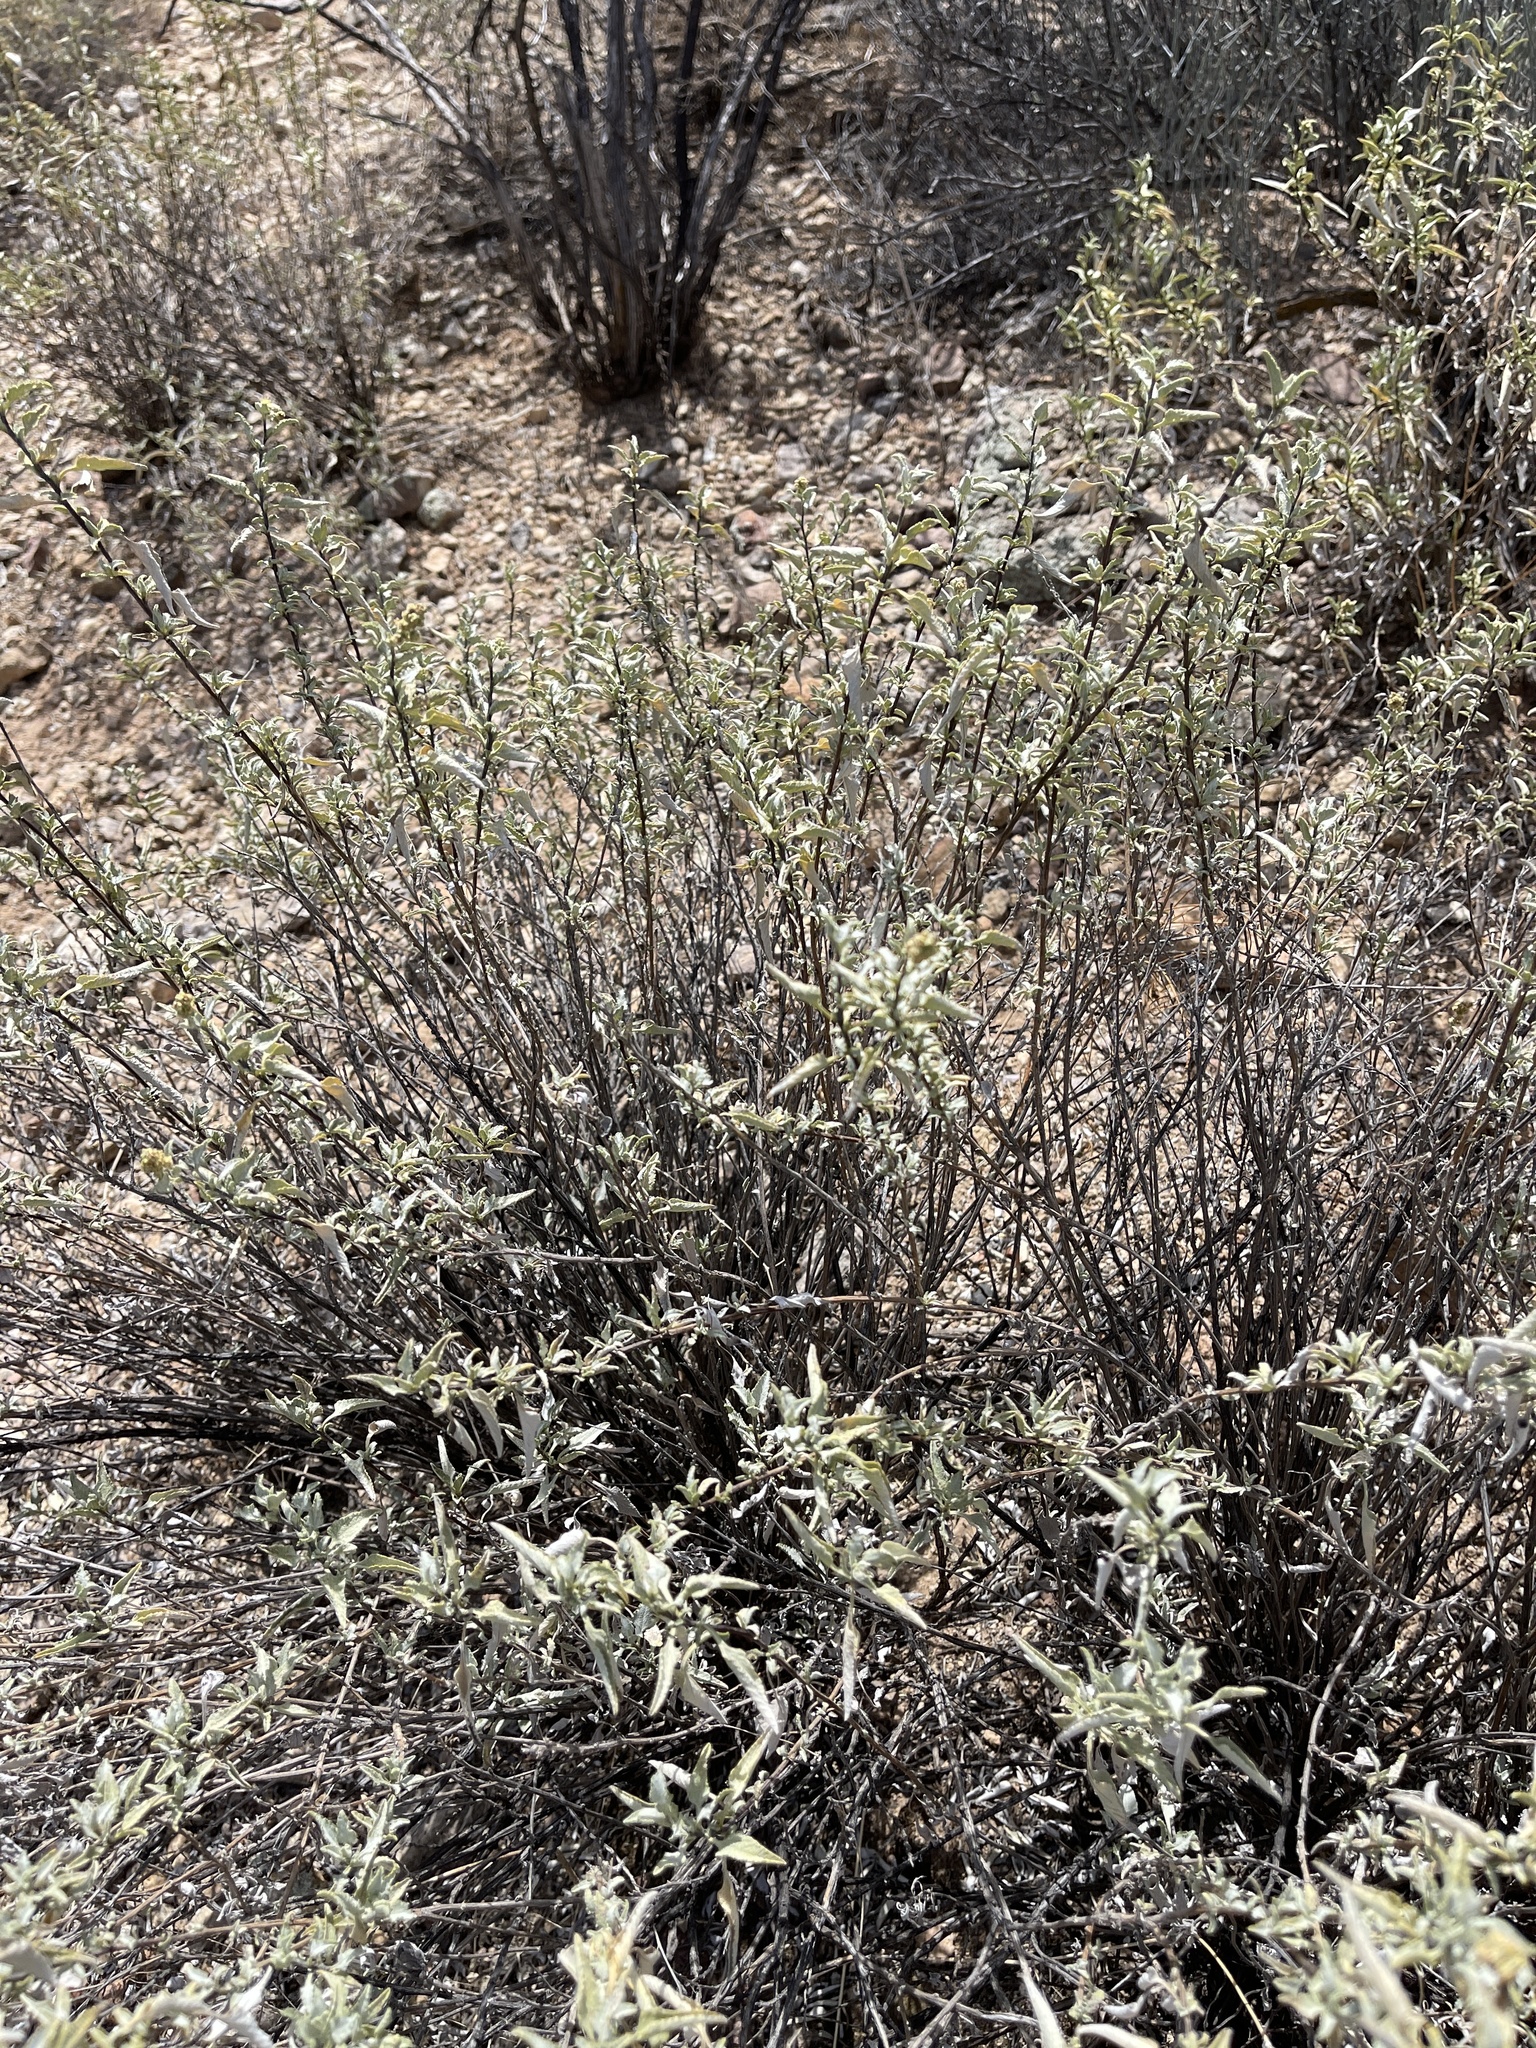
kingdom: Plantae
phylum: Tracheophyta
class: Magnoliopsida
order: Asterales
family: Asteraceae
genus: Ambrosia
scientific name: Ambrosia deltoidea
